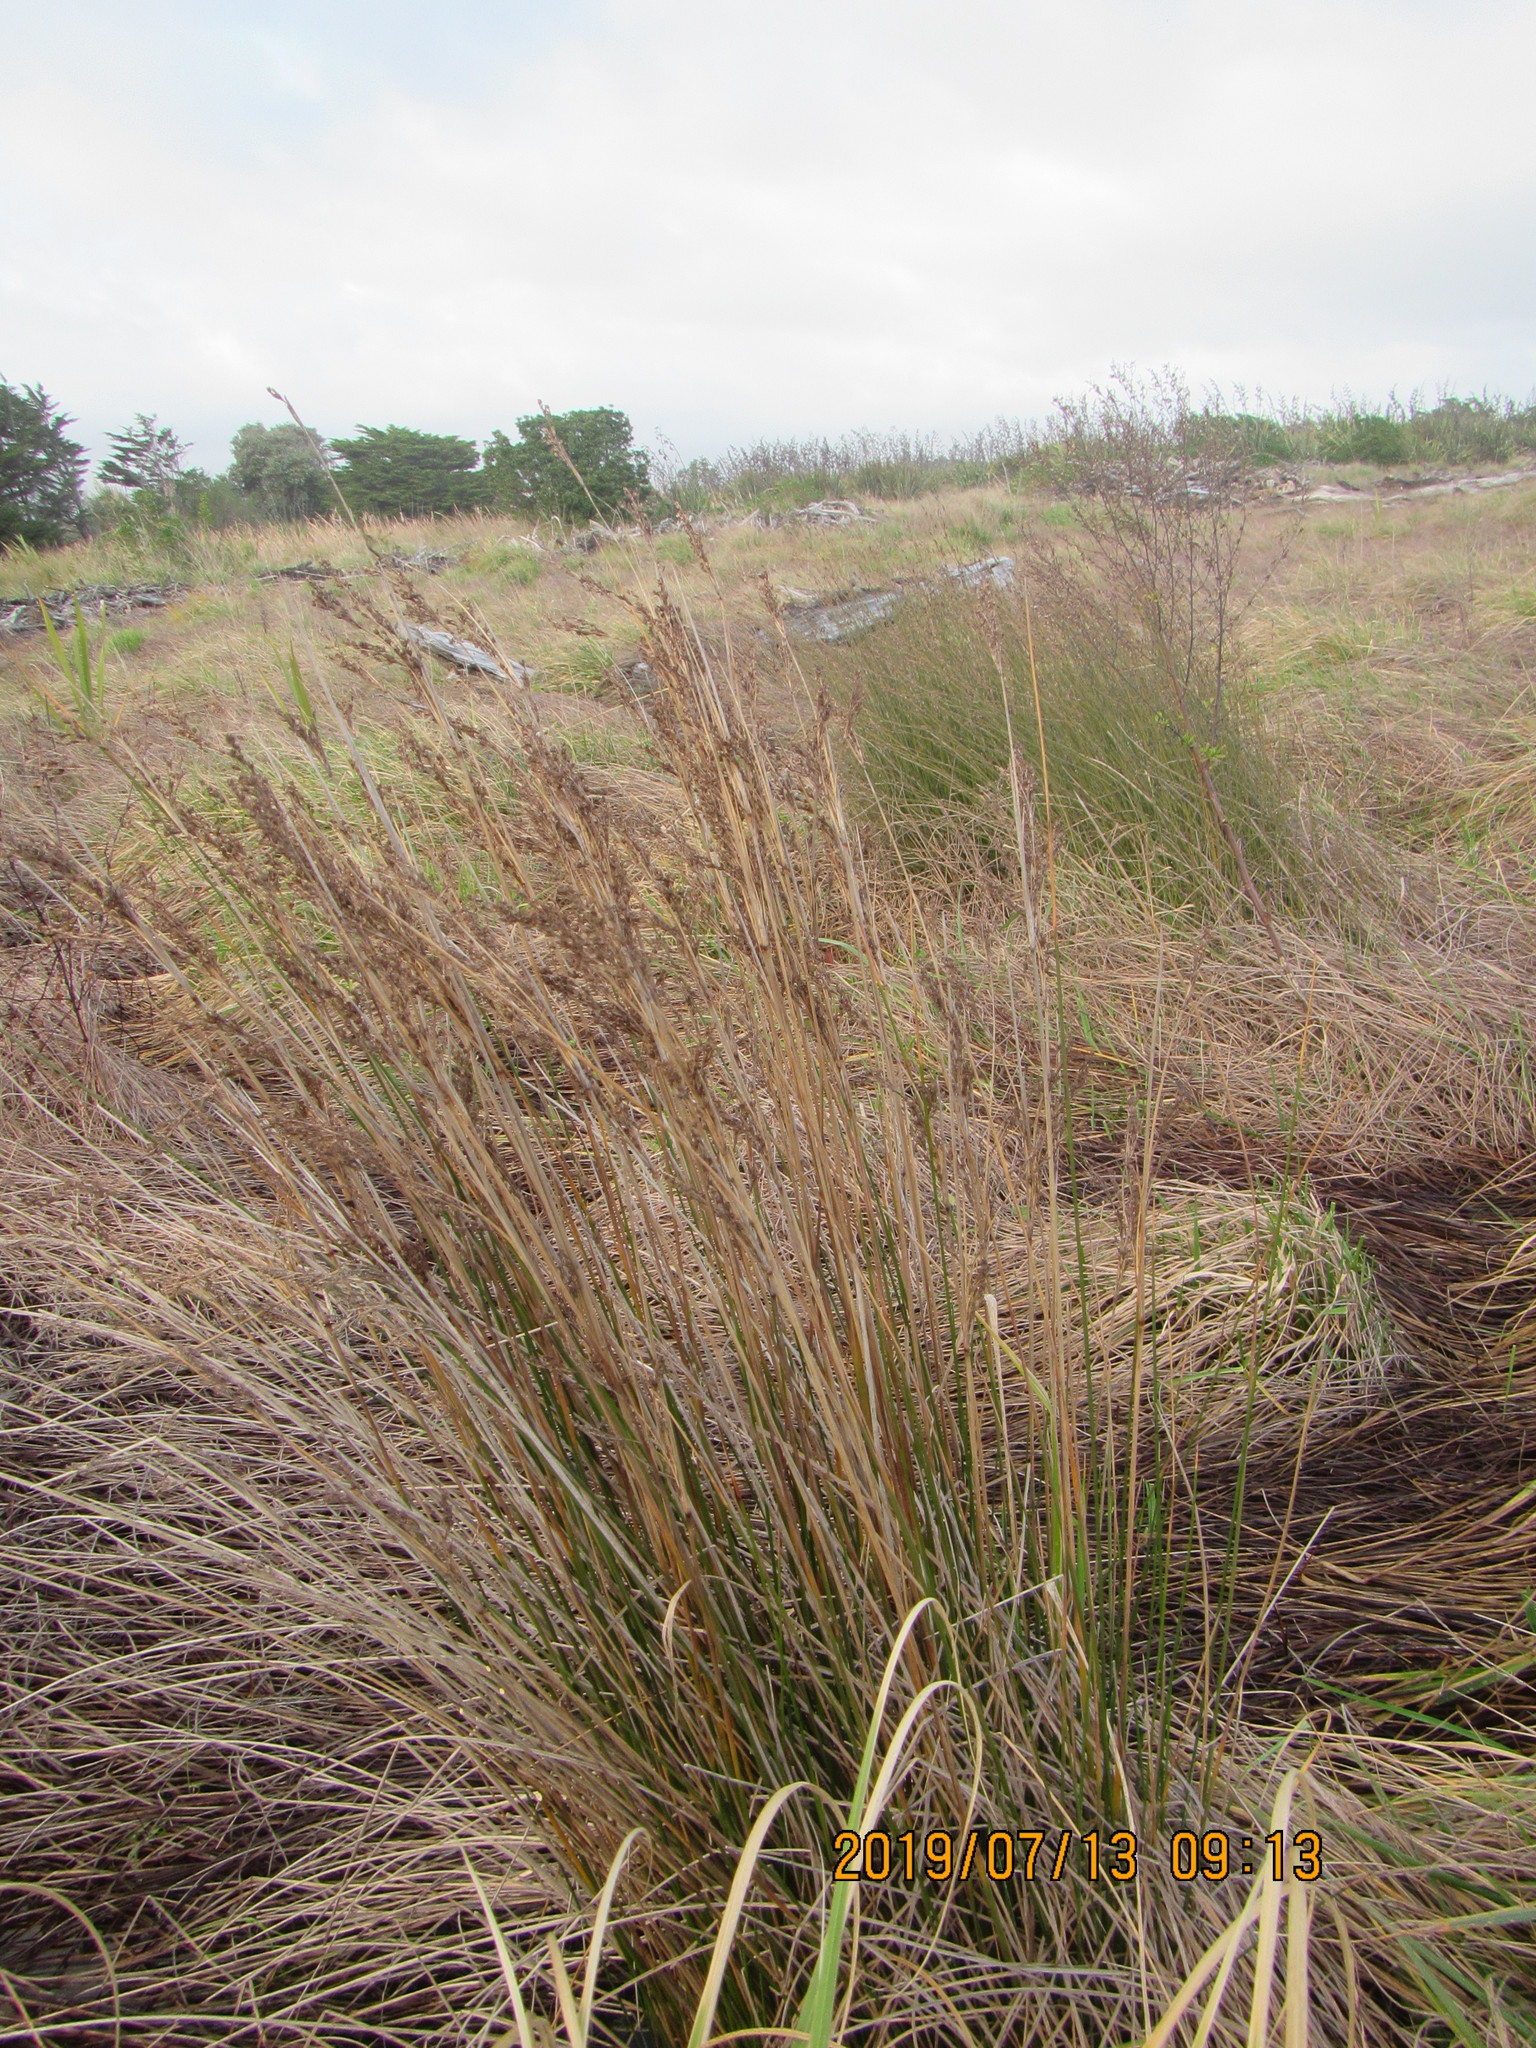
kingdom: Plantae
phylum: Tracheophyta
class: Liliopsida
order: Poales
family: Juncaceae
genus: Juncus
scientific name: Juncus kraussii
